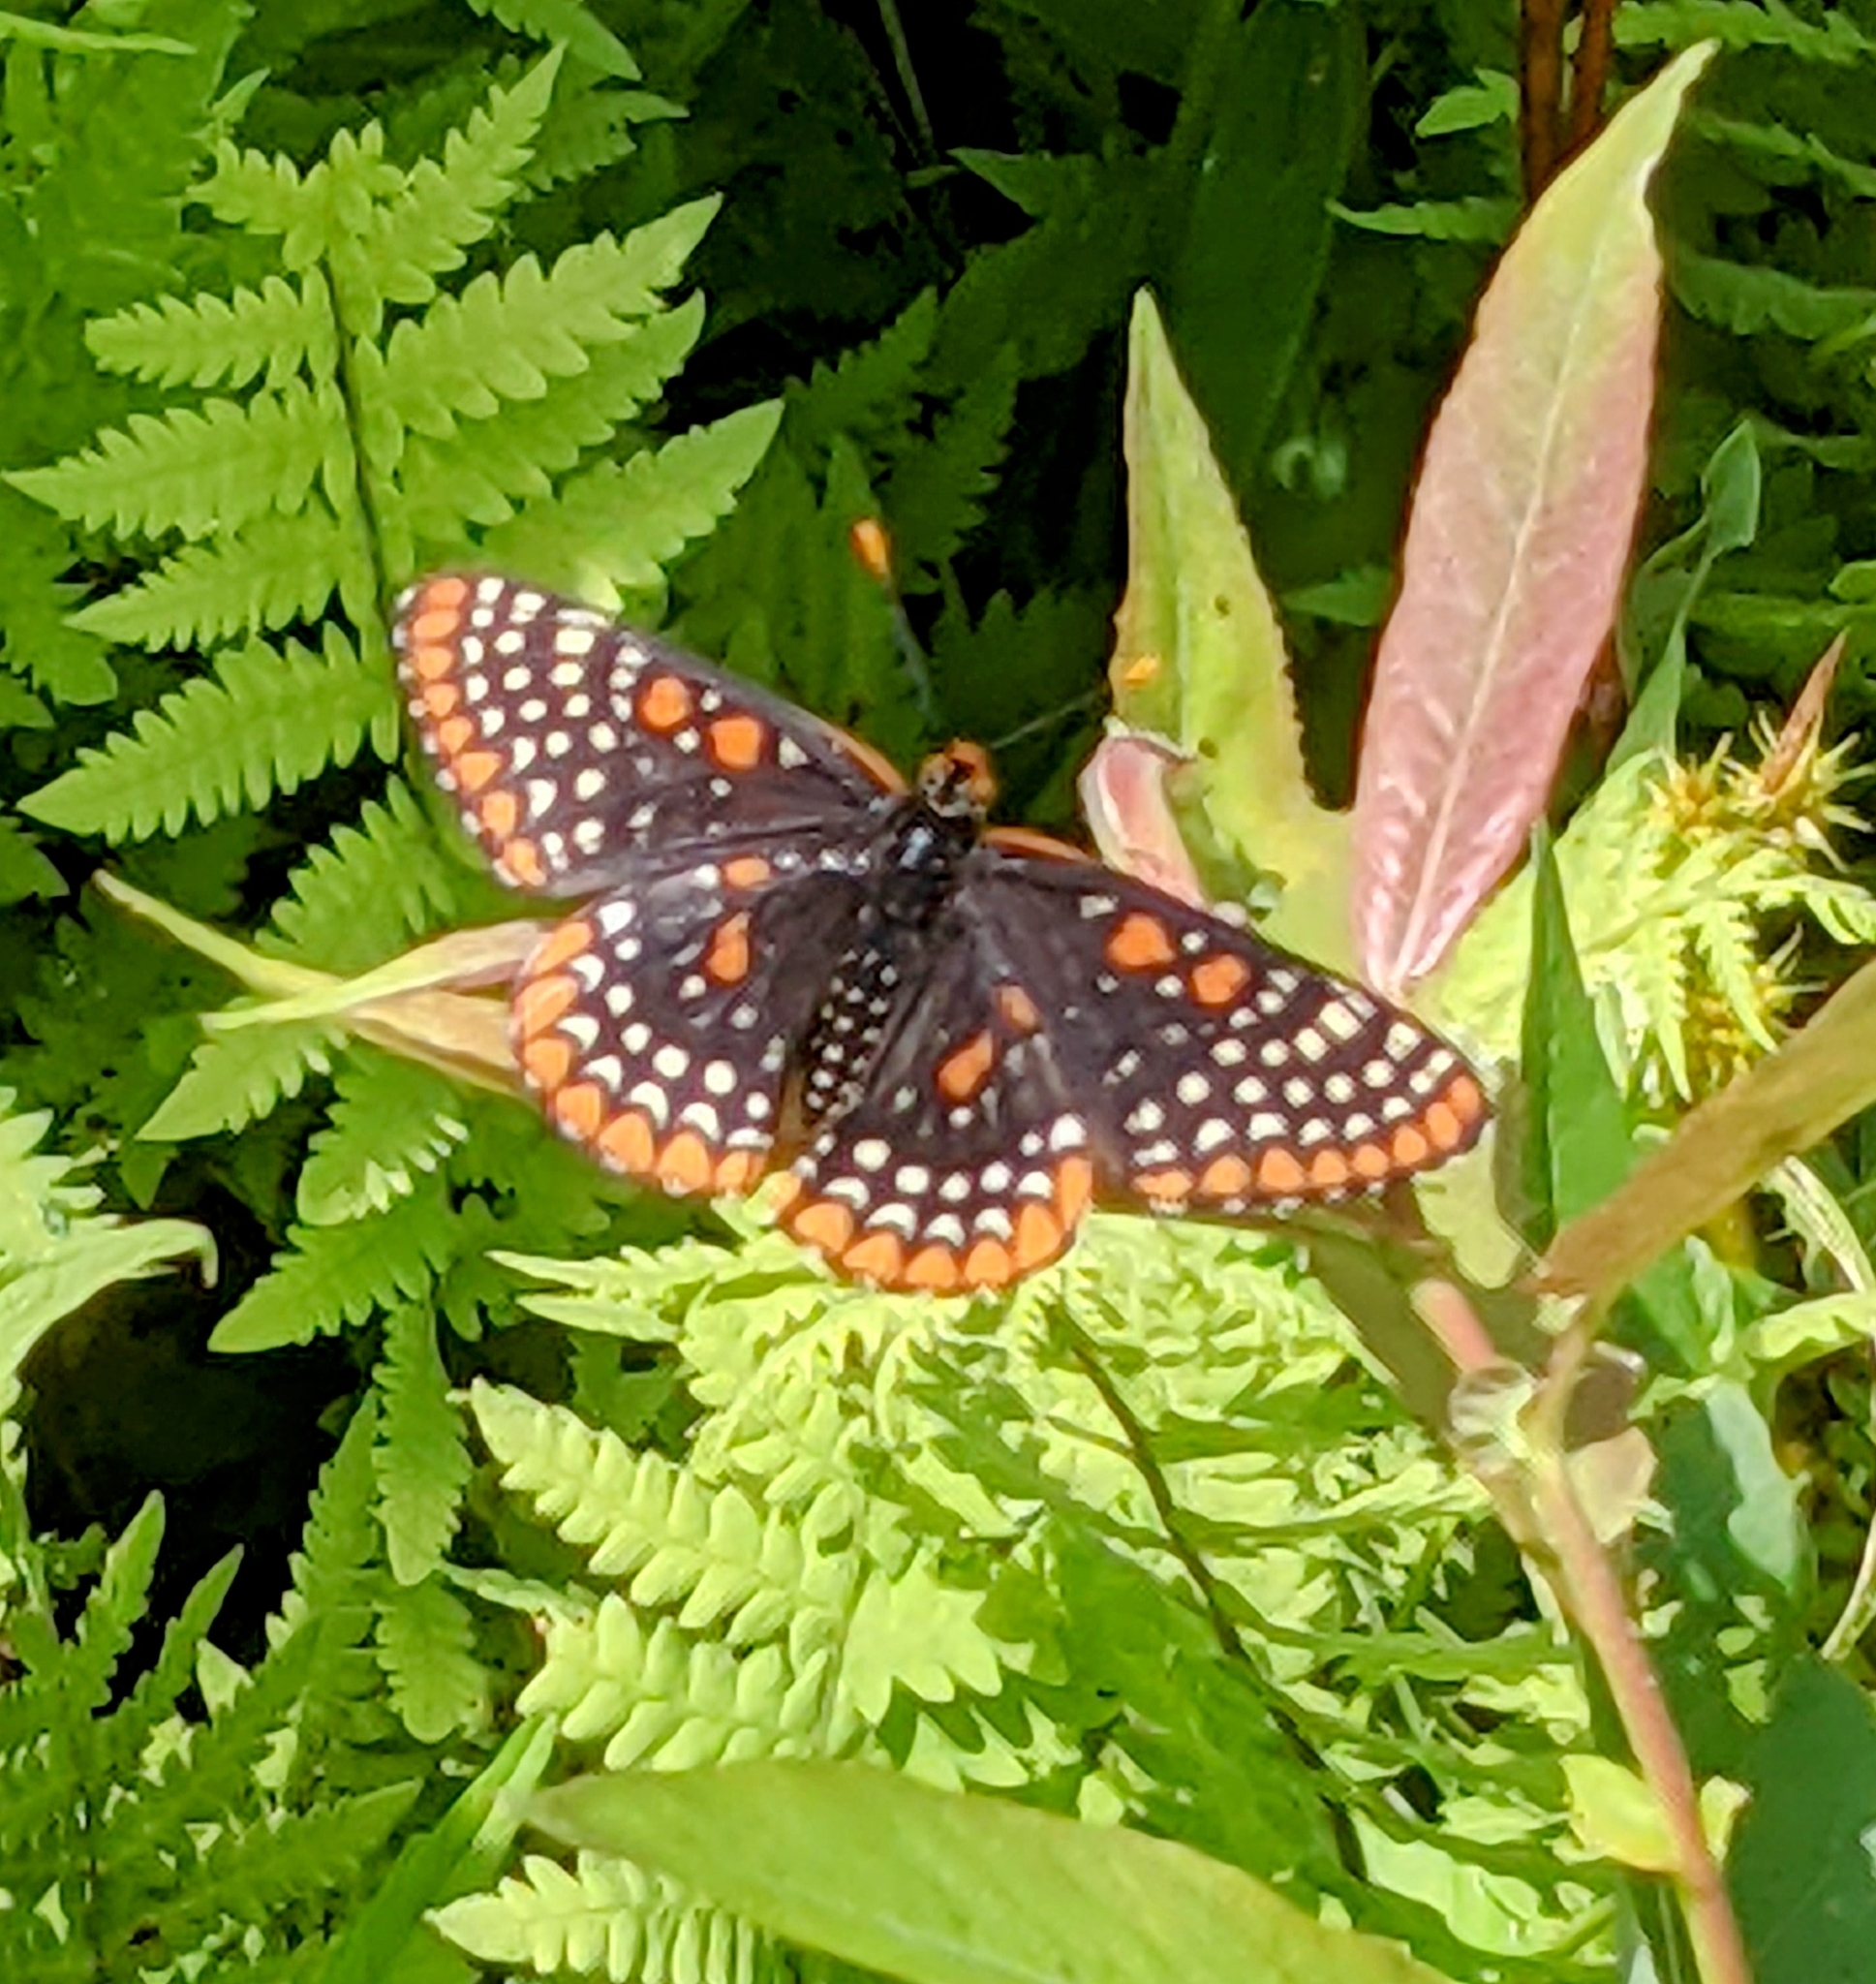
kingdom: Animalia
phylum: Arthropoda
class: Insecta
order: Lepidoptera
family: Nymphalidae
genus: Euphydryas
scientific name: Euphydryas phaeton
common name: Baltimore checkerspot
